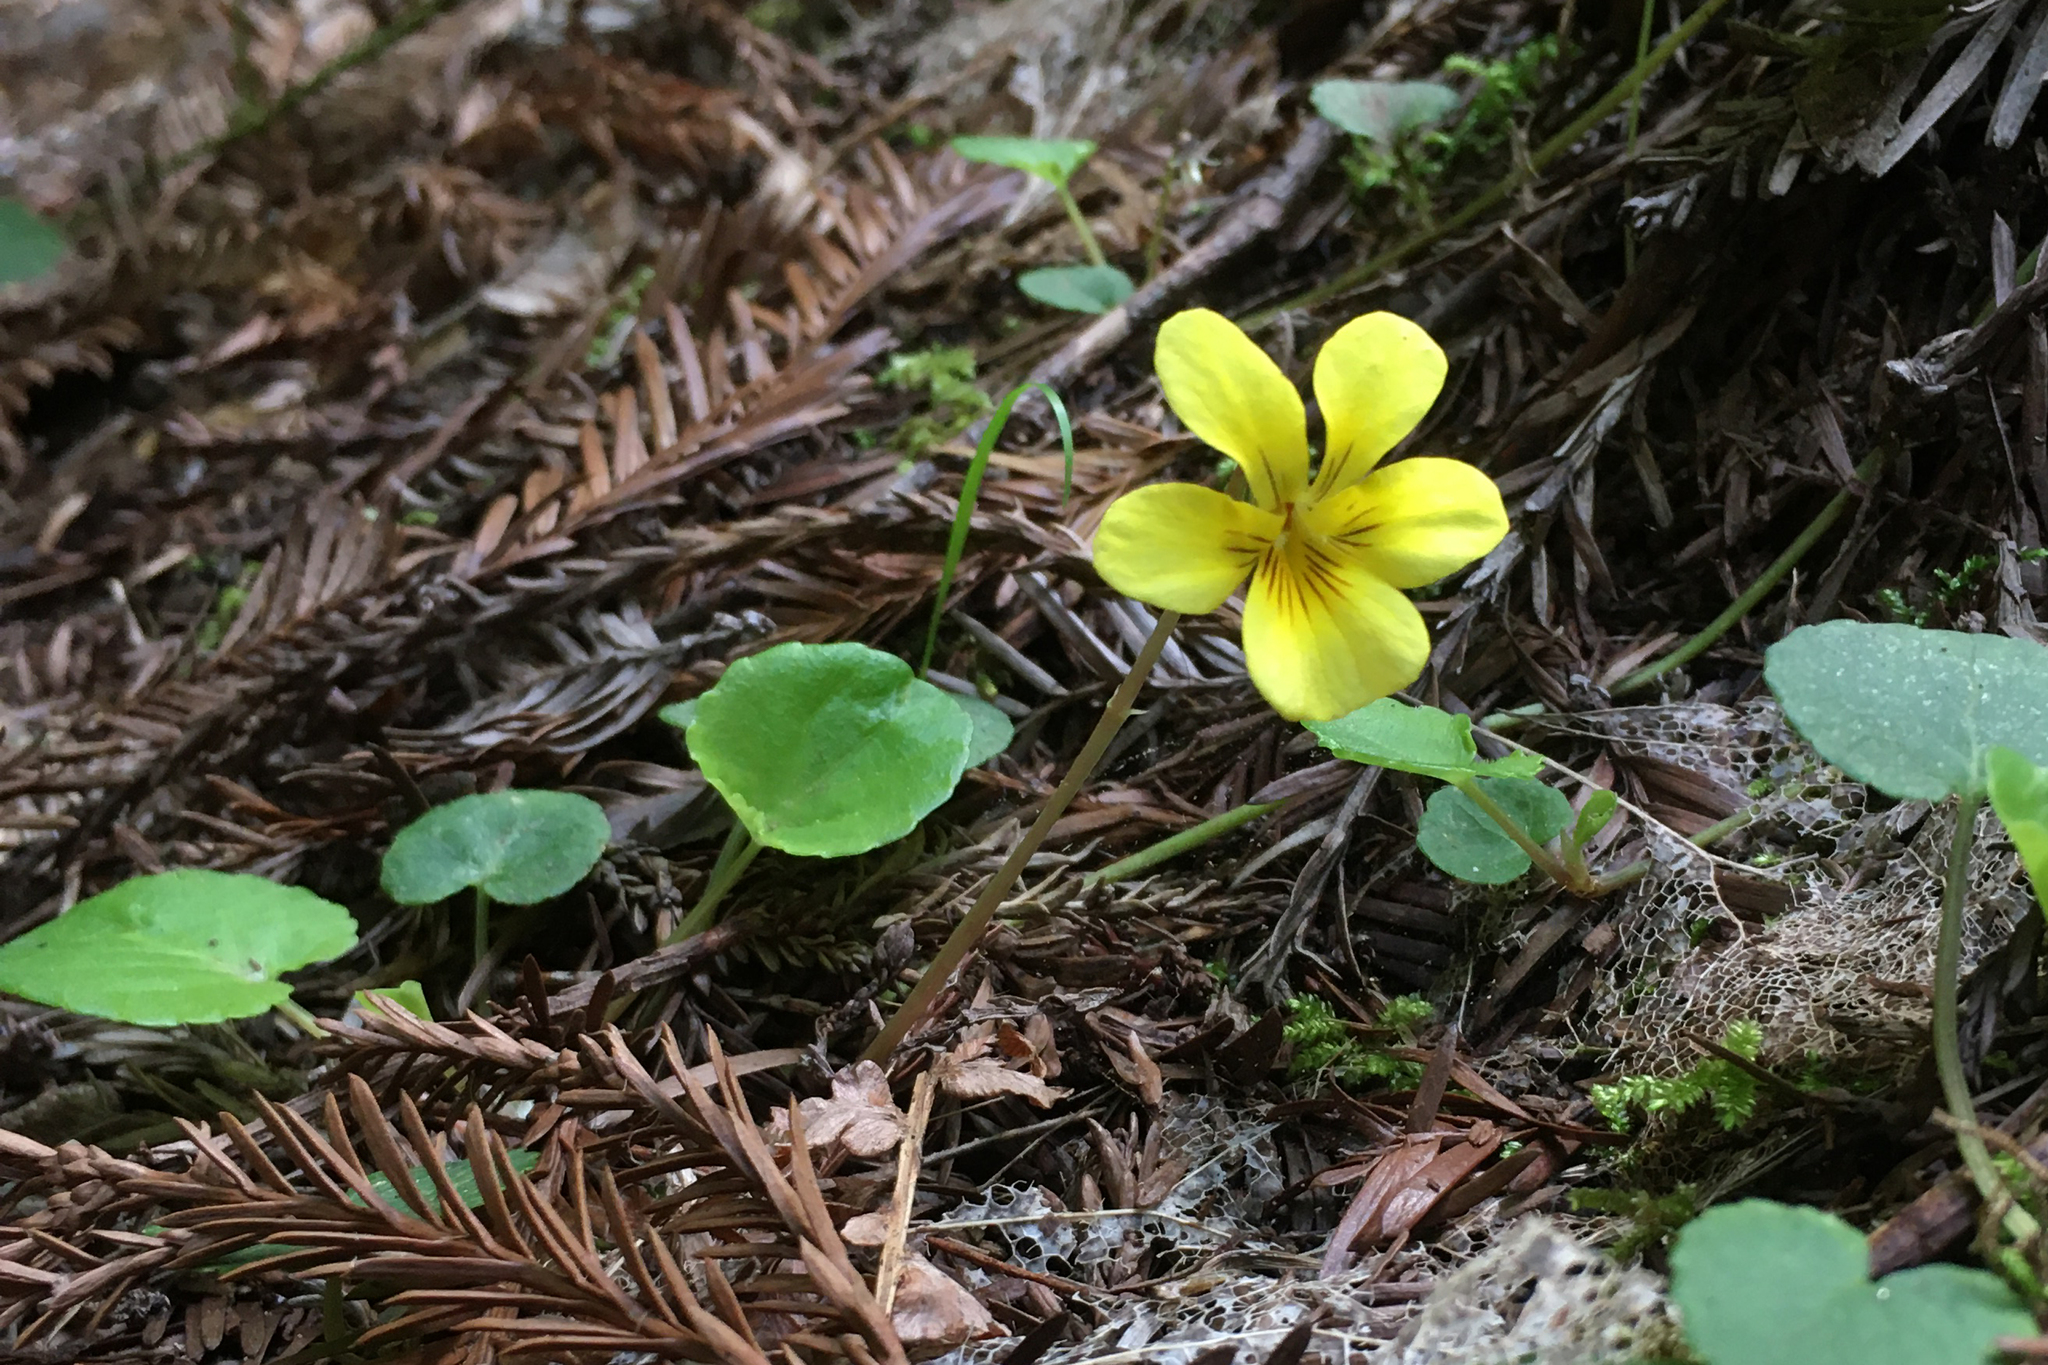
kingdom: Plantae
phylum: Tracheophyta
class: Magnoliopsida
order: Malpighiales
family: Violaceae
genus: Viola
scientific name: Viola sempervirens
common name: Evergreen violet
